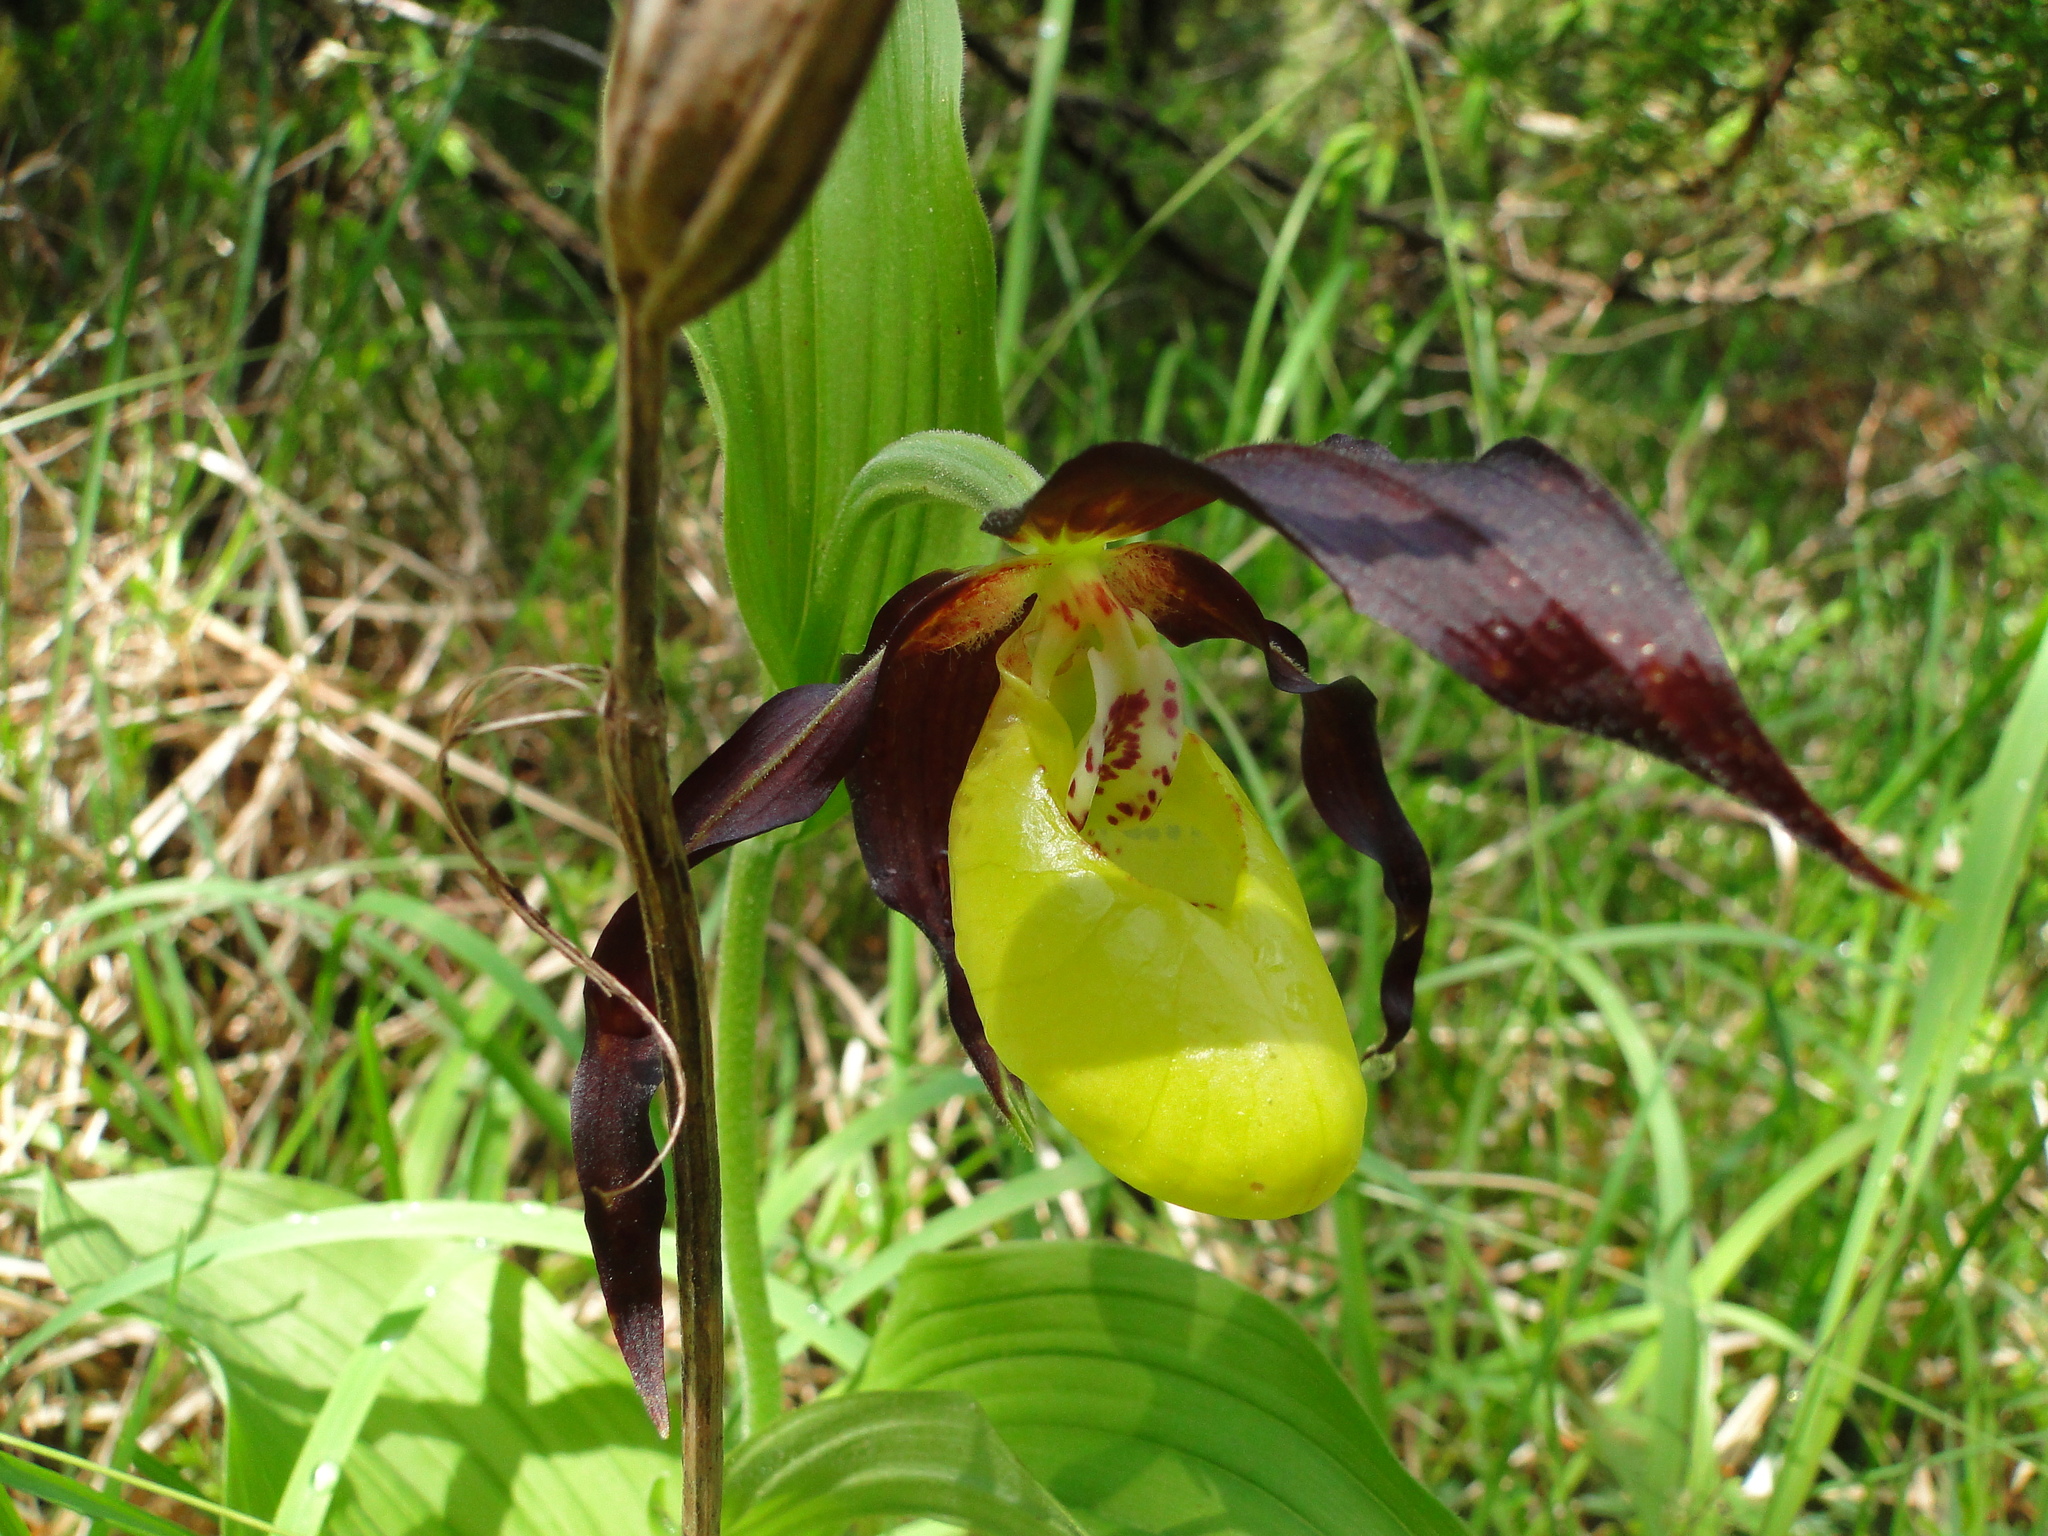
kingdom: Plantae
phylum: Tracheophyta
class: Liliopsida
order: Asparagales
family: Orchidaceae
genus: Cypripedium
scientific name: Cypripedium calceolus
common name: Lady's-slipper
